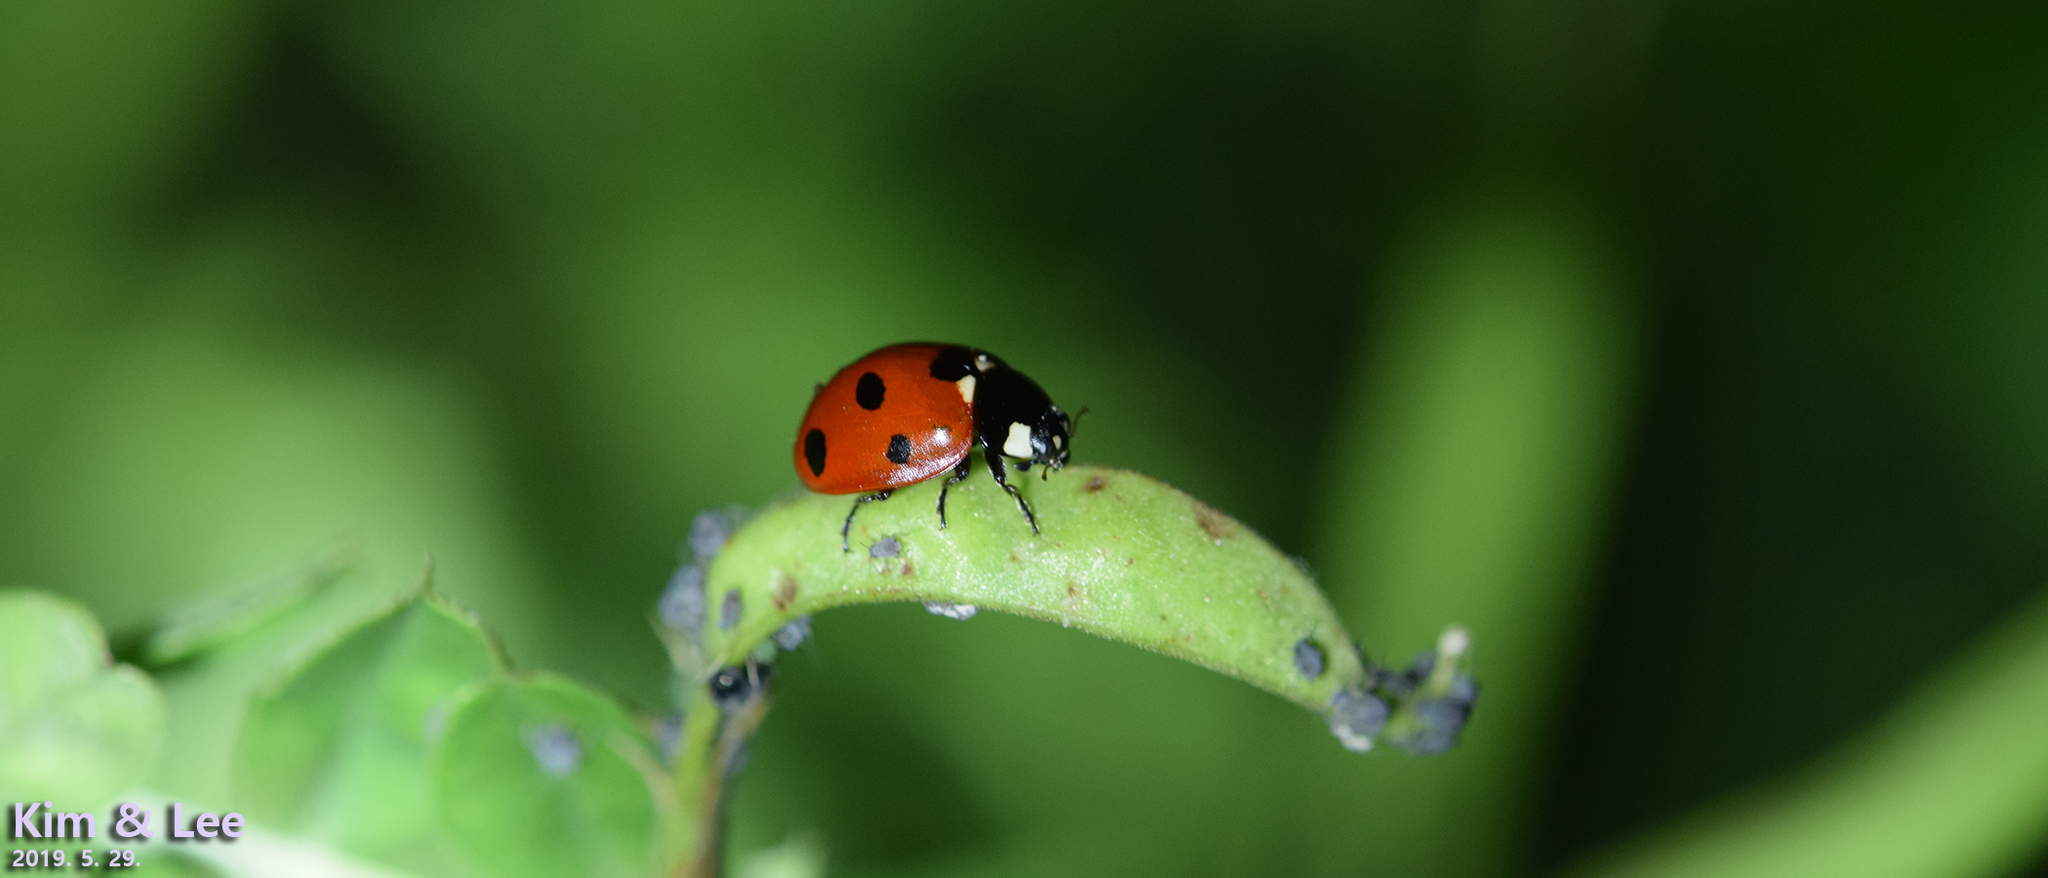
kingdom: Animalia
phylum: Arthropoda
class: Insecta
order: Coleoptera
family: Coccinellidae
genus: Coccinella
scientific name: Coccinella septempunctata
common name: Sevenspotted lady beetle
